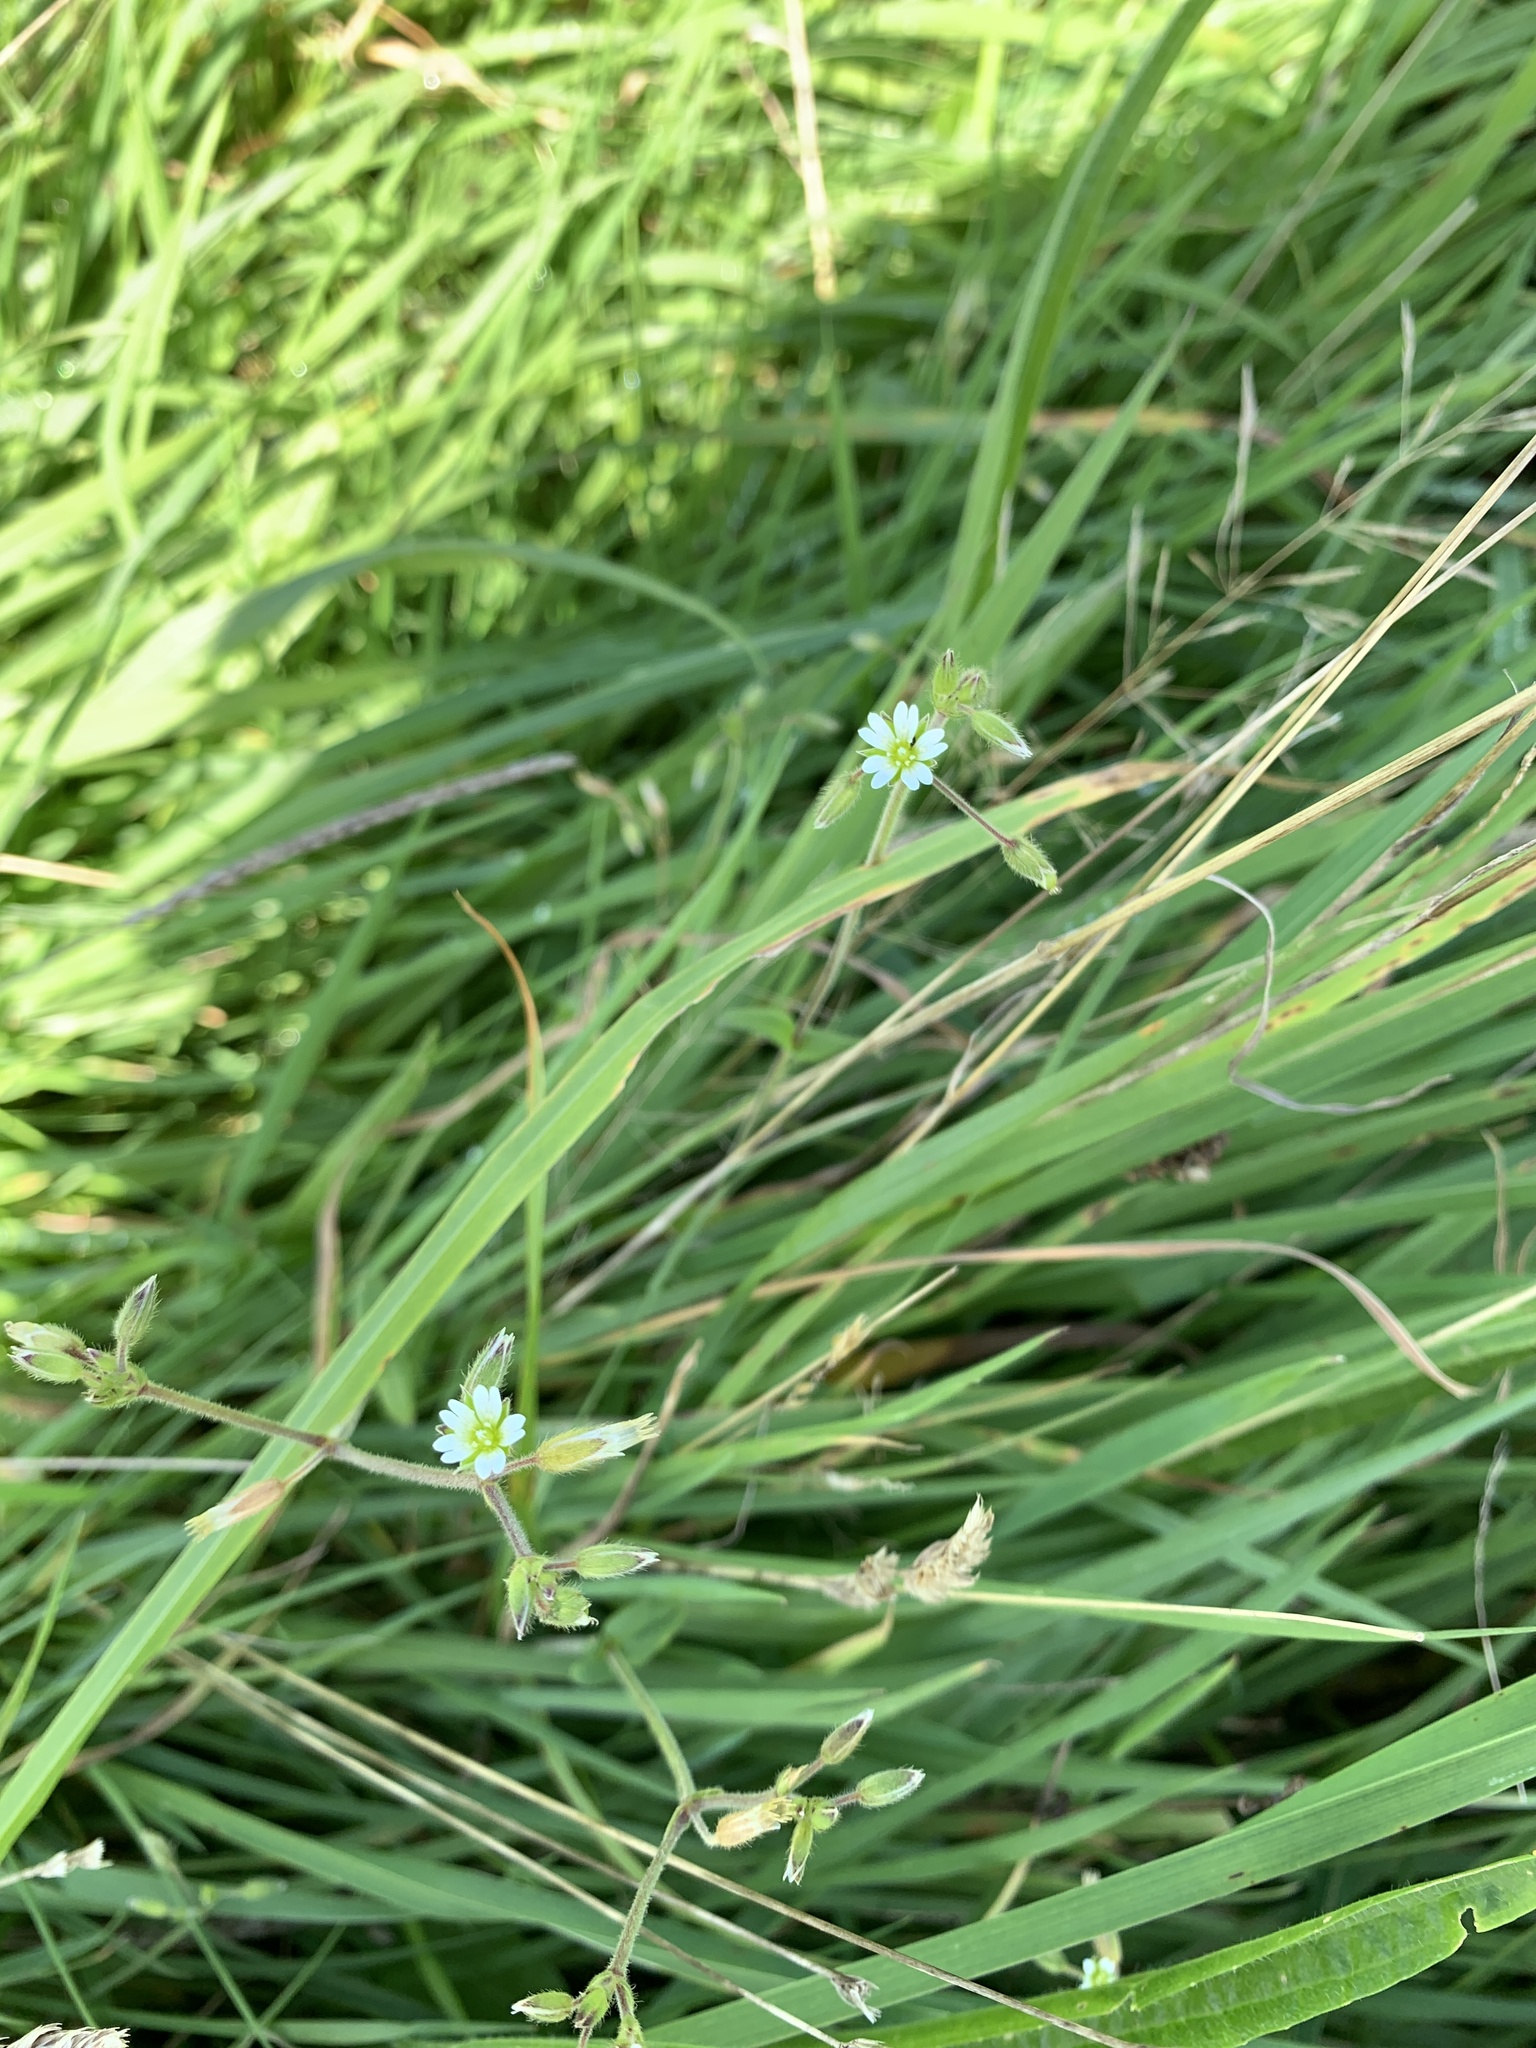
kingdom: Plantae
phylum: Tracheophyta
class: Magnoliopsida
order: Caryophyllales
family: Caryophyllaceae
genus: Cerastium
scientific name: Cerastium fontanum
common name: Common mouse-ear
